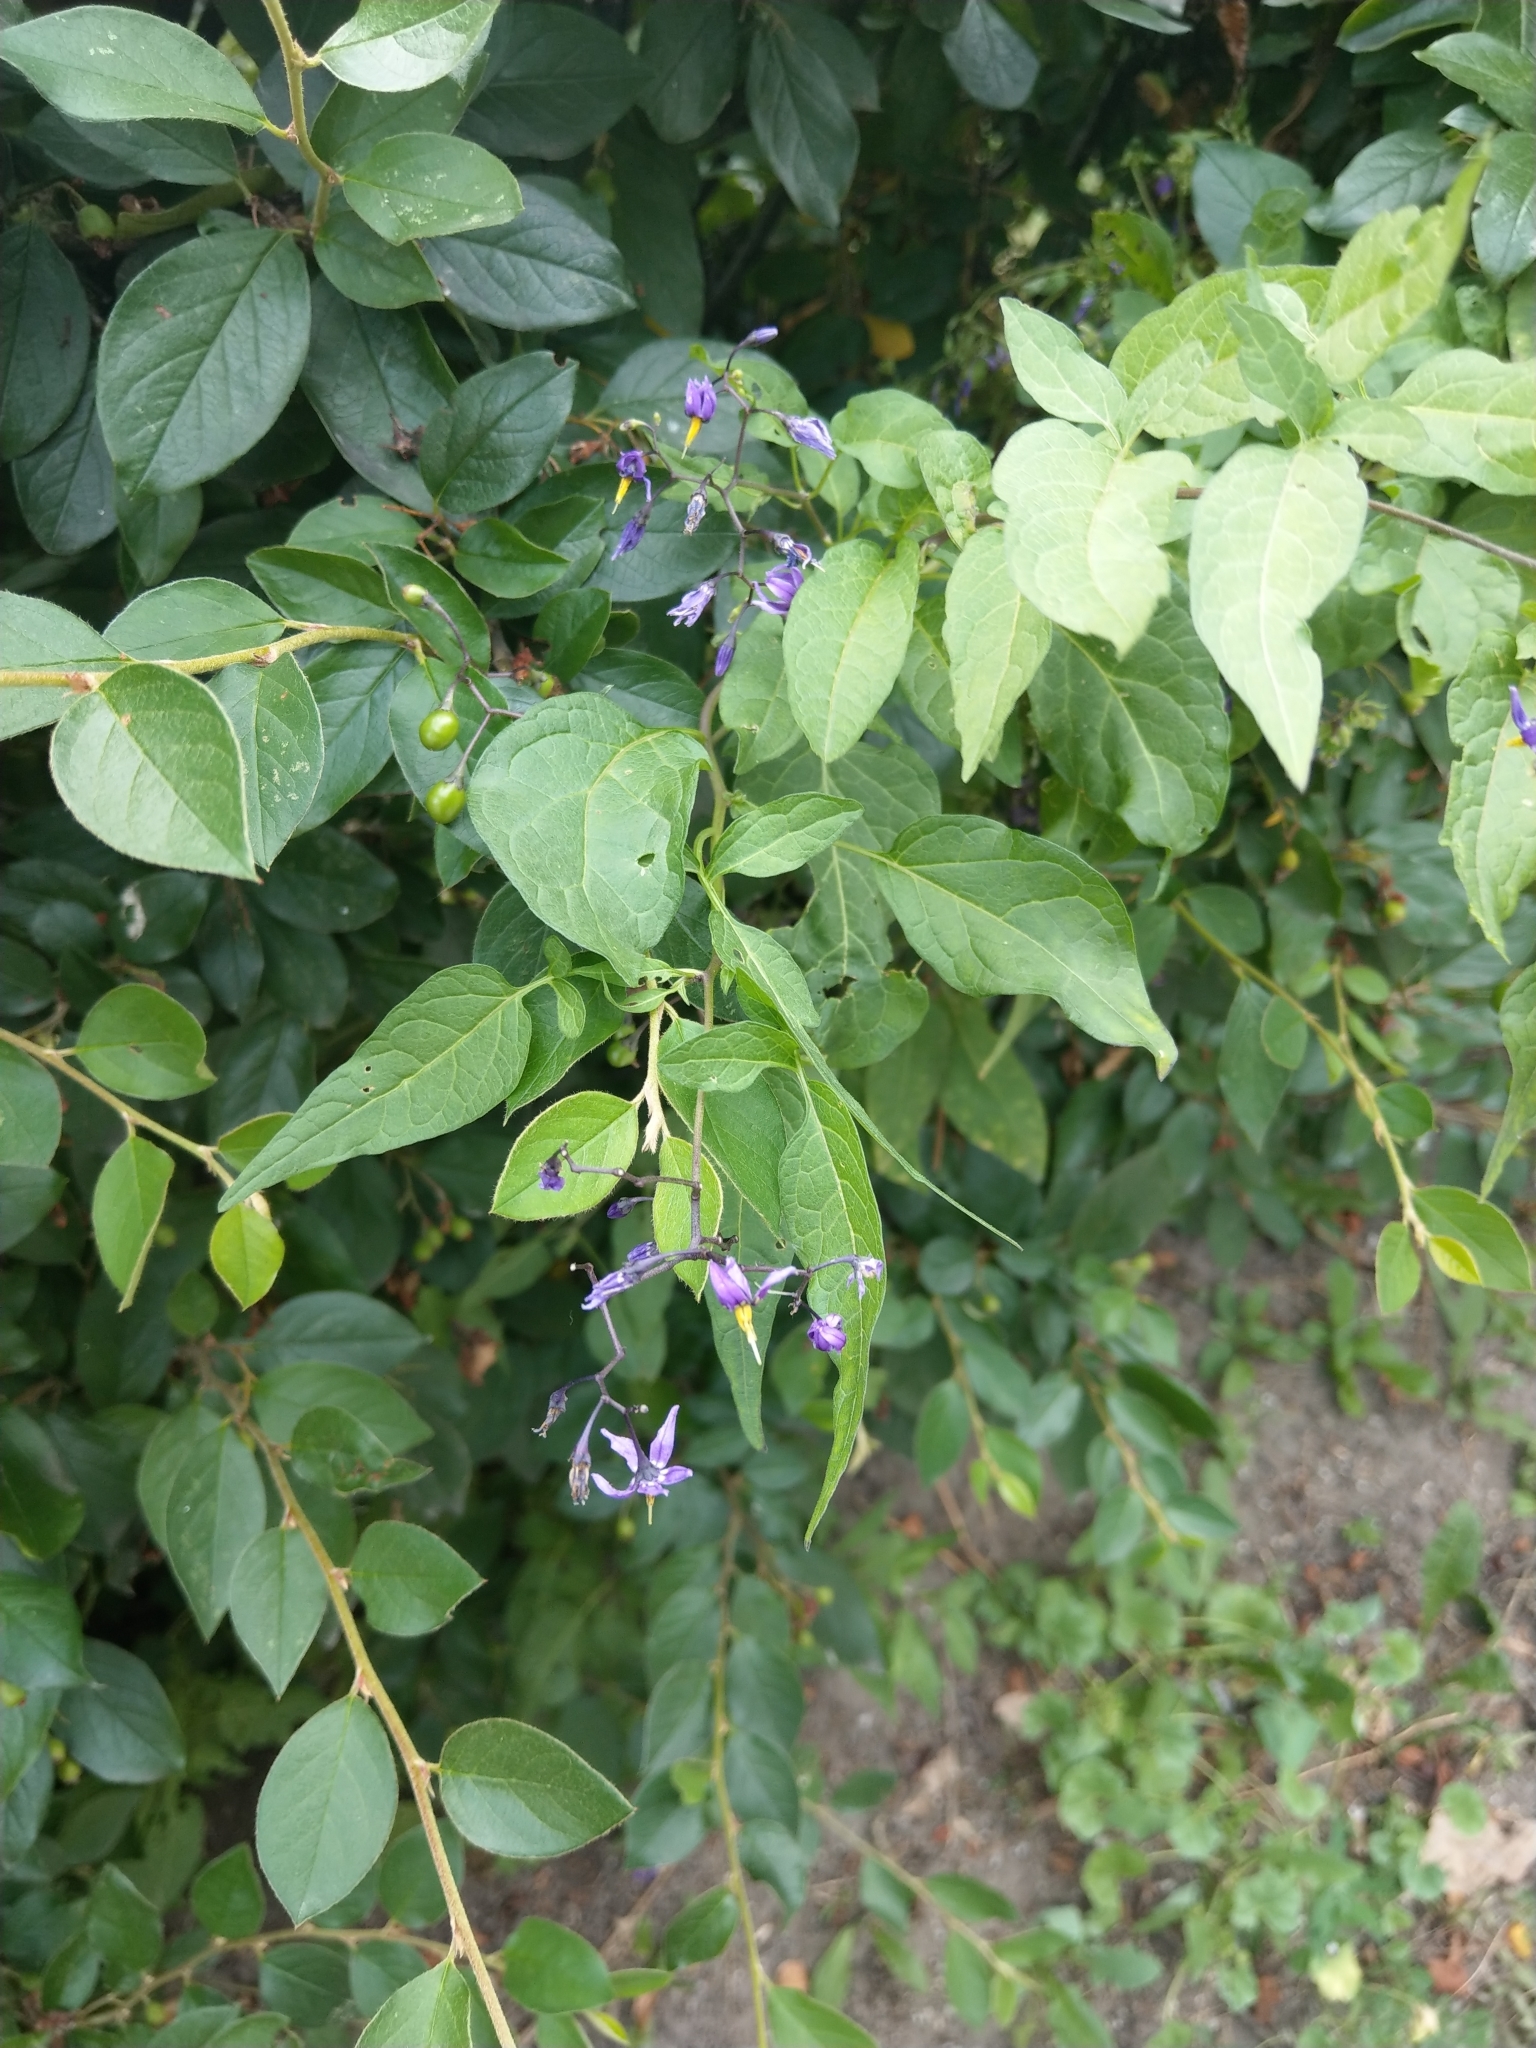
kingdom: Plantae
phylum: Tracheophyta
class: Magnoliopsida
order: Solanales
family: Solanaceae
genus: Solanum
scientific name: Solanum dulcamara
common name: Climbing nightshade
